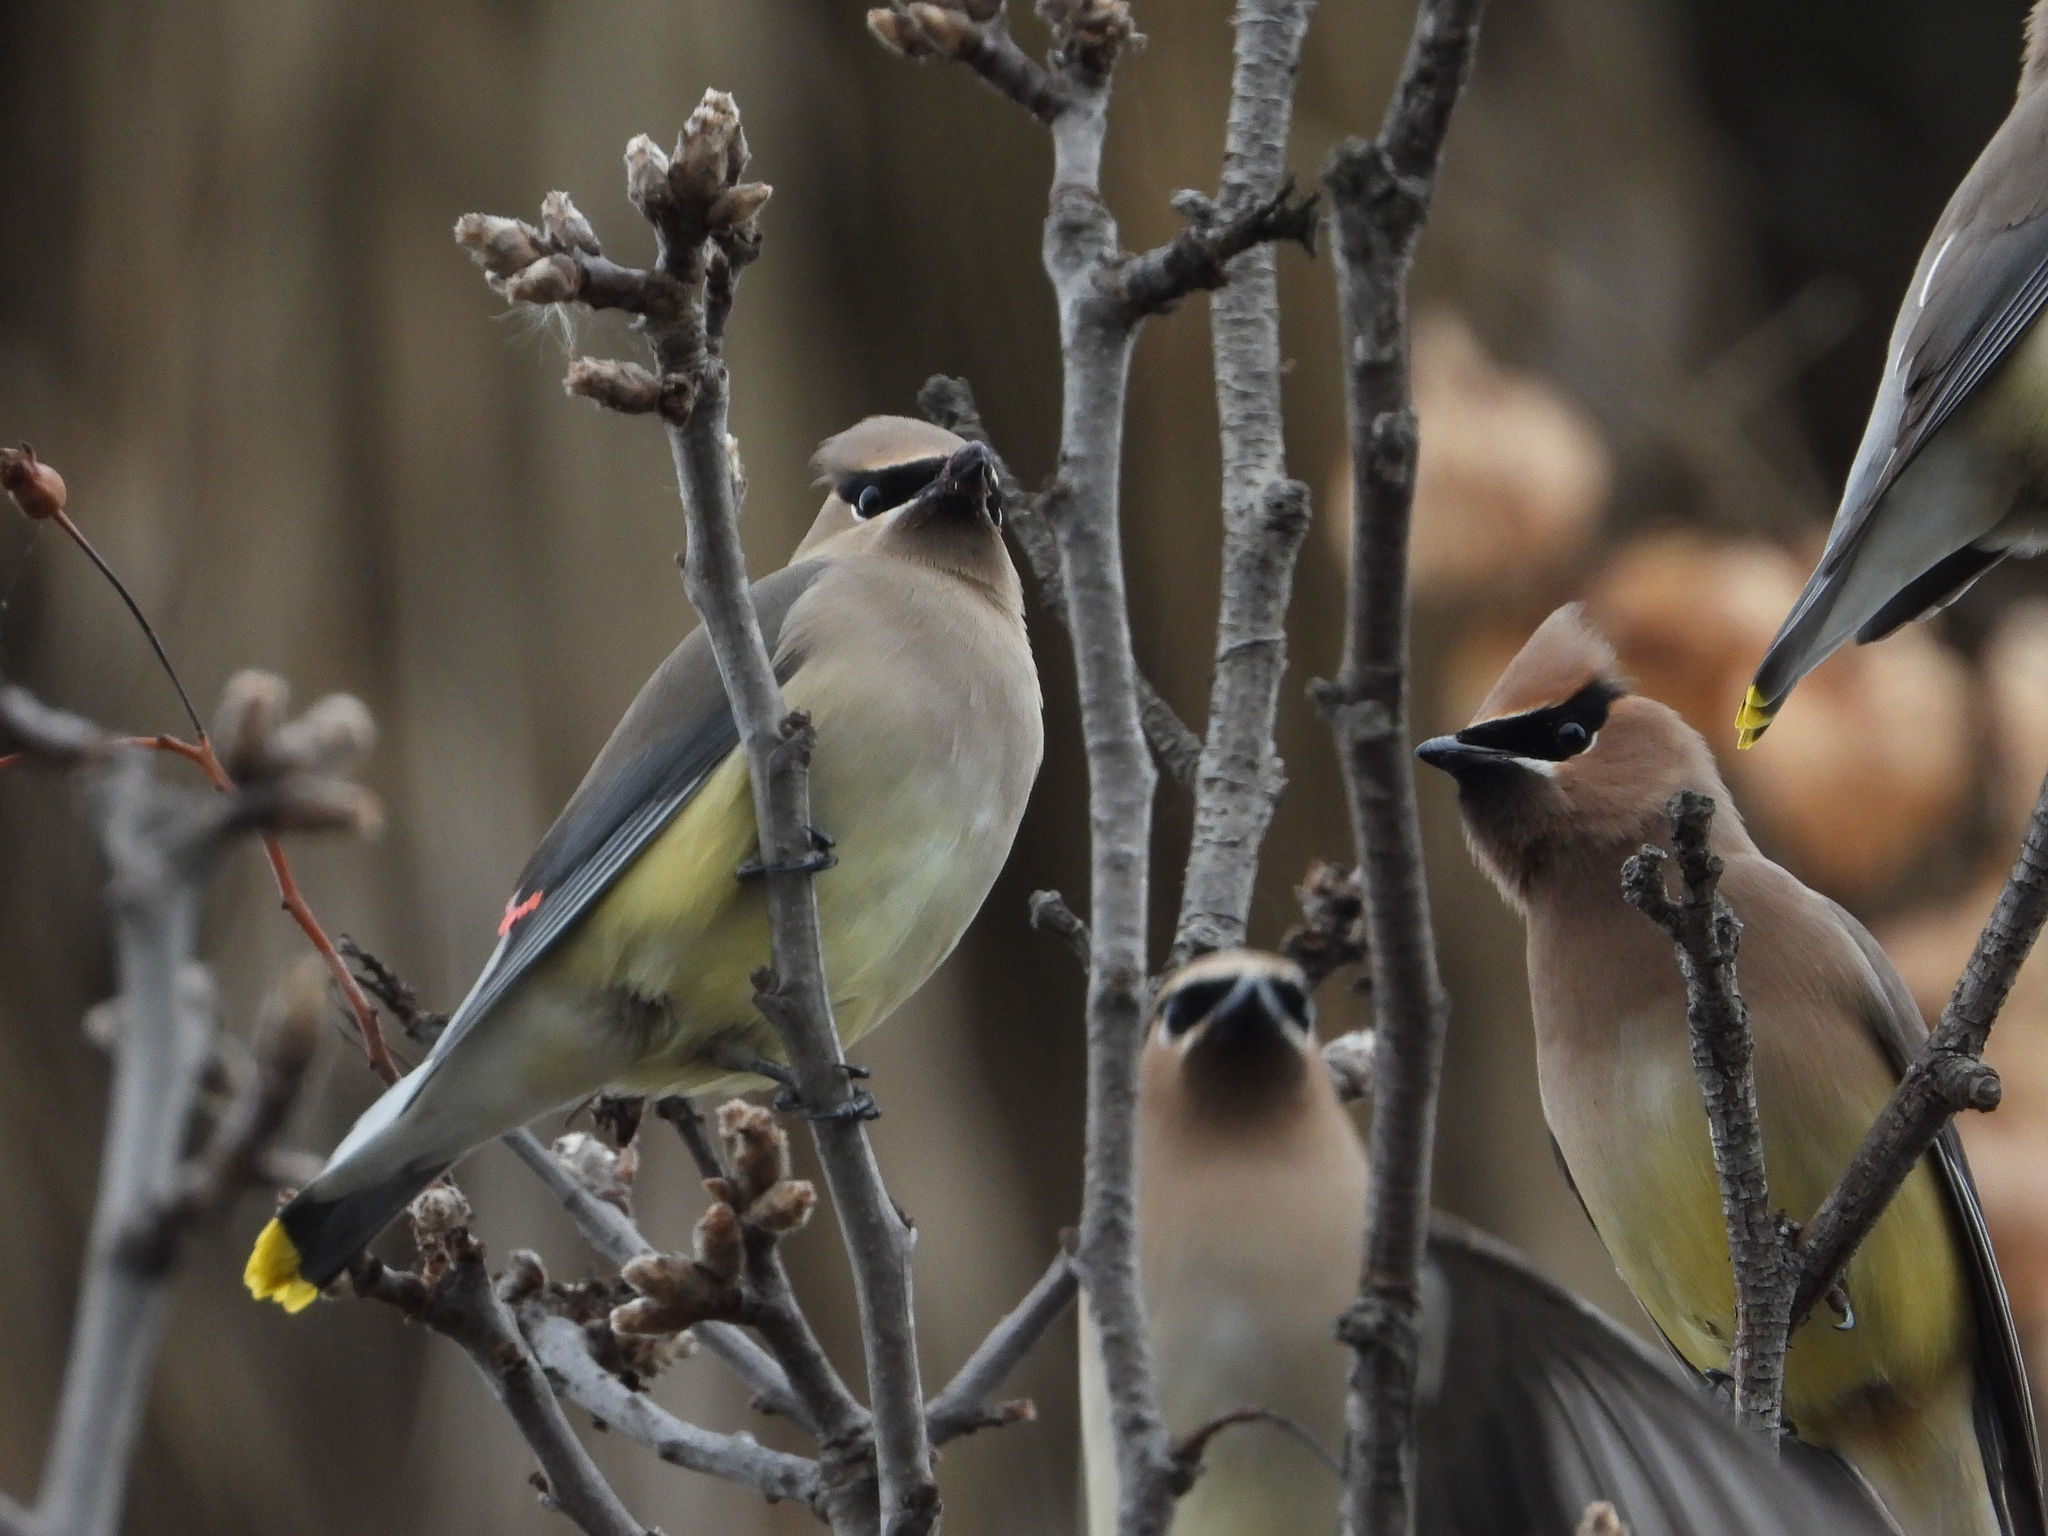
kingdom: Animalia
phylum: Chordata
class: Aves
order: Passeriformes
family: Bombycillidae
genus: Bombycilla
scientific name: Bombycilla cedrorum
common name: Cedar waxwing
